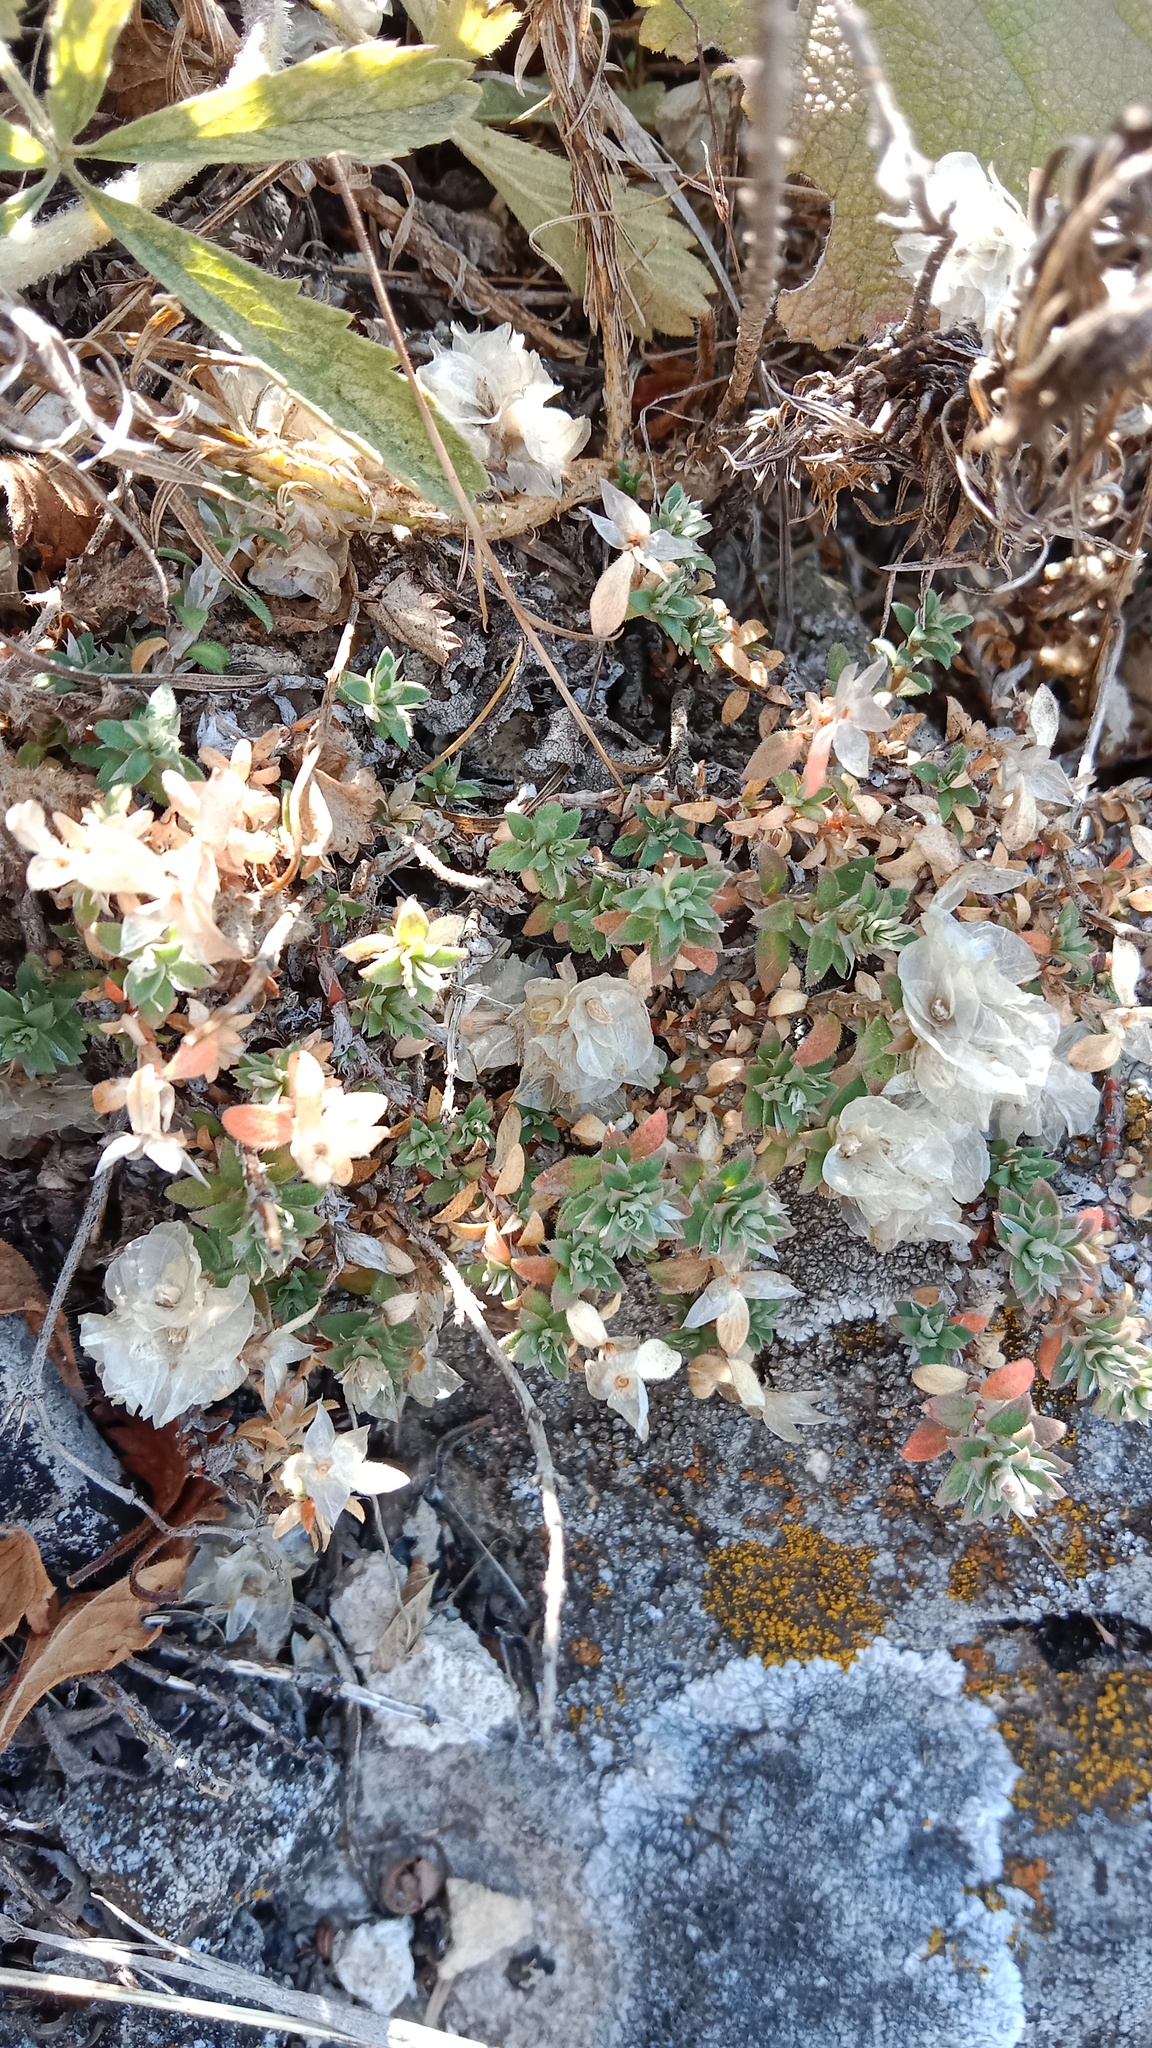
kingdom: Plantae
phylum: Tracheophyta
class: Magnoliopsida
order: Caryophyllales
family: Caryophyllaceae
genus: Paronychia
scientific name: Paronychia cephalotes
